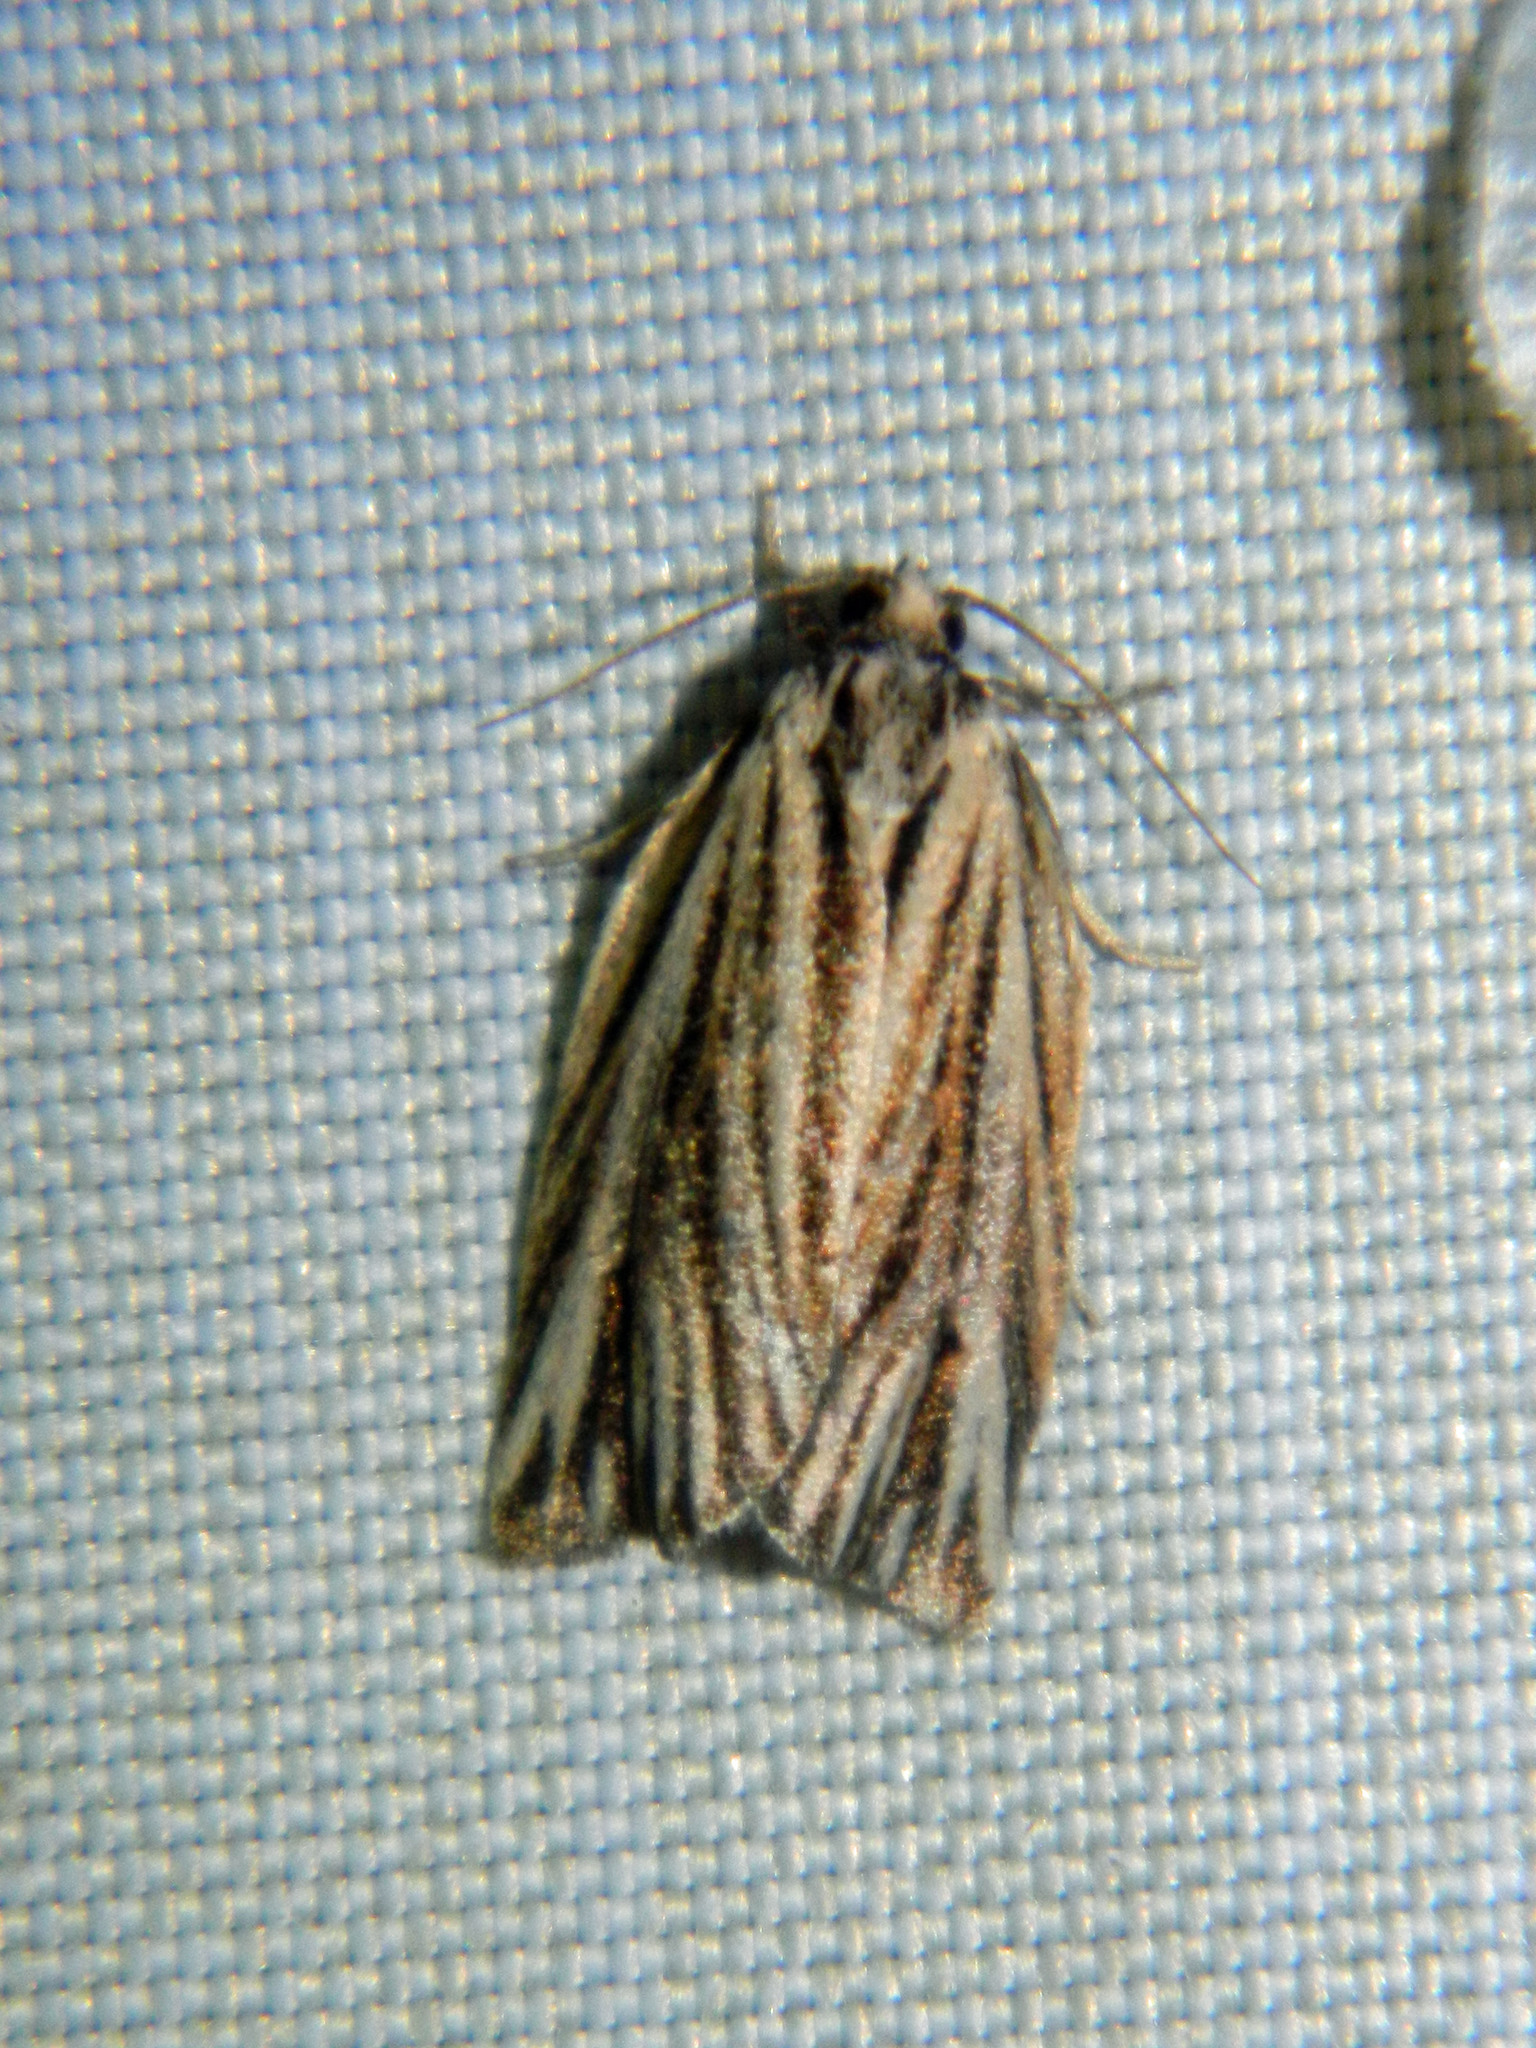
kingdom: Animalia
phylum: Arthropoda
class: Insecta
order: Lepidoptera
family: Tortricidae
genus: Archips
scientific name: Archips strianus
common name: Striated tortrix moth
